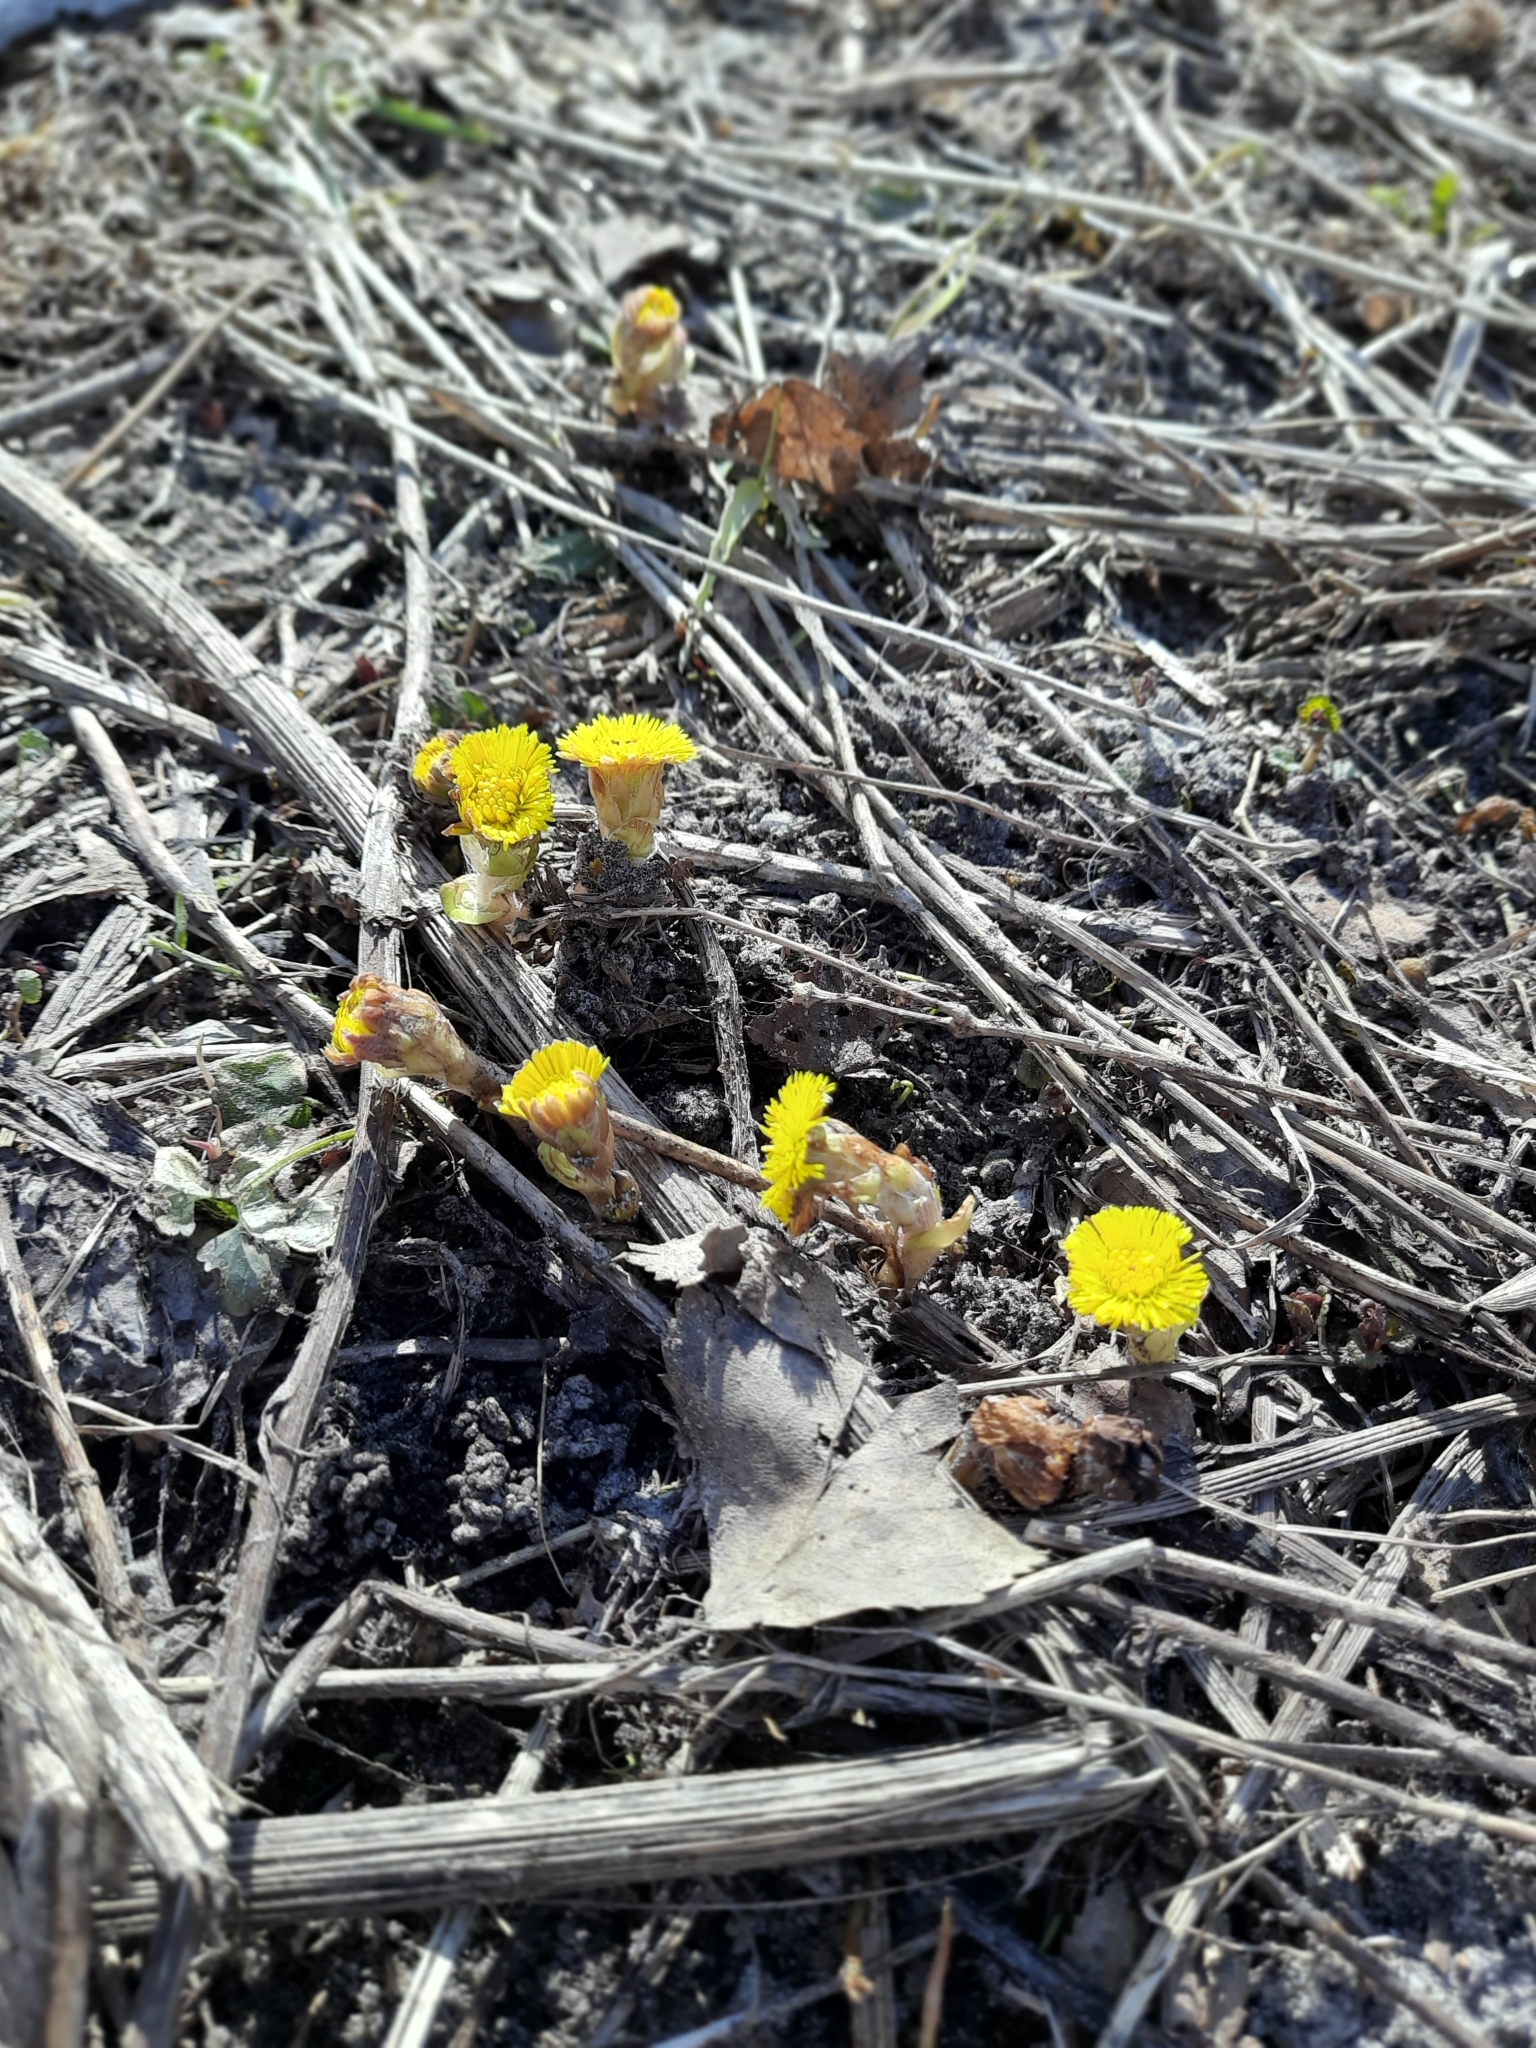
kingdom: Plantae
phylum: Tracheophyta
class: Magnoliopsida
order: Asterales
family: Asteraceae
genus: Tussilago
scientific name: Tussilago farfara
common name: Coltsfoot
